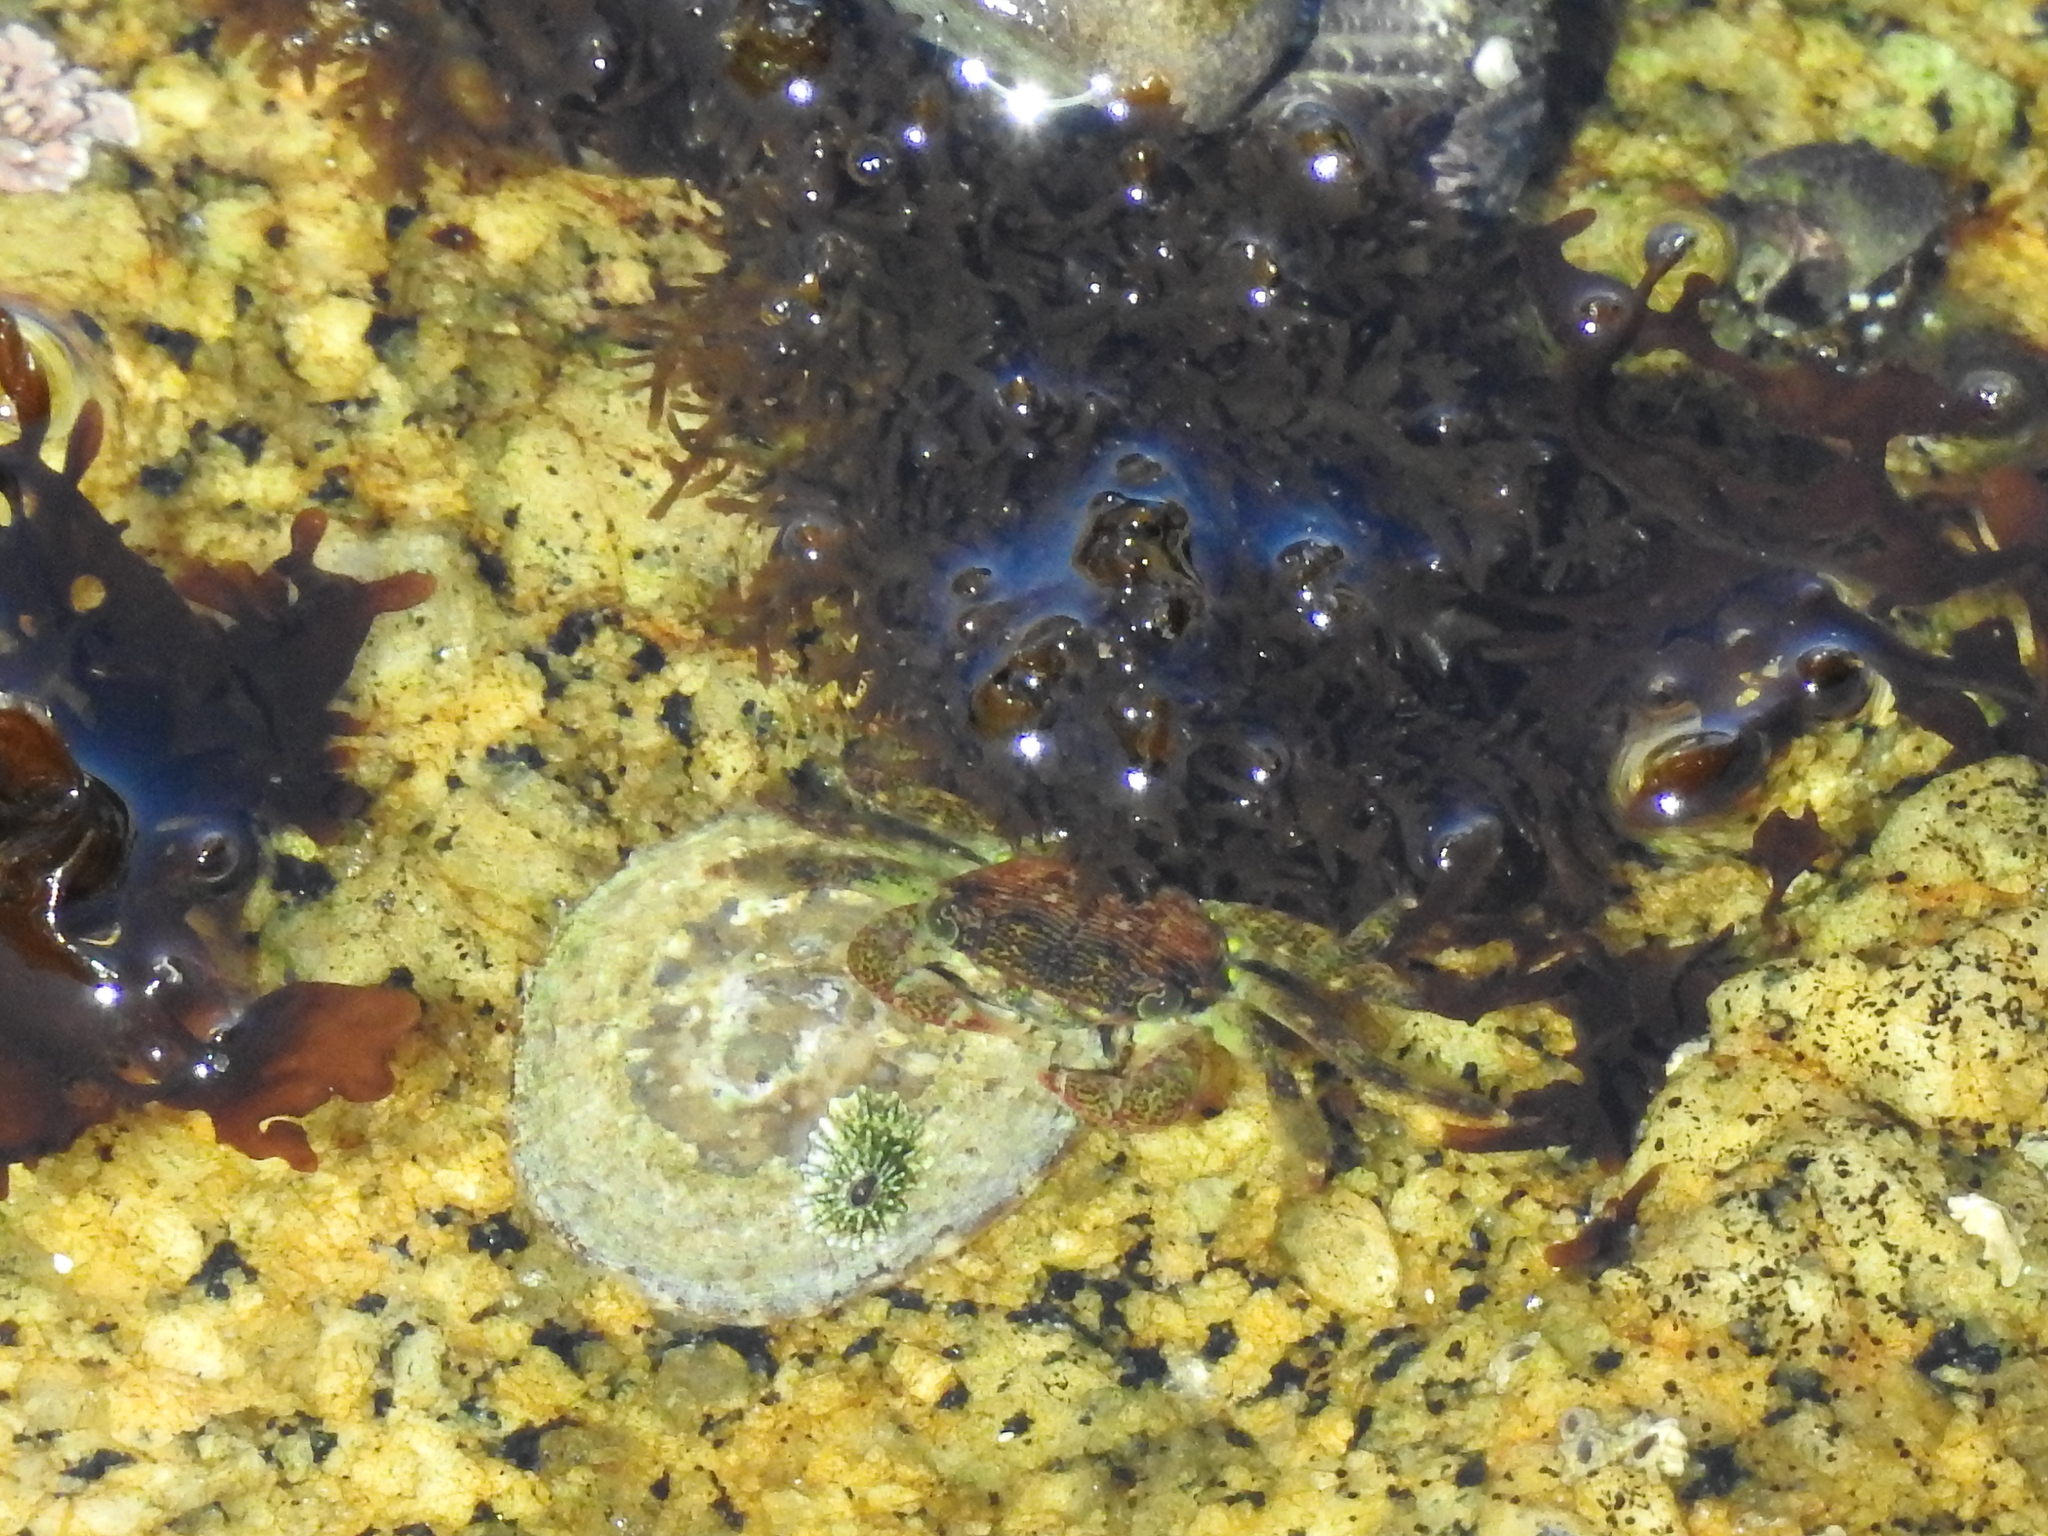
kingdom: Animalia
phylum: Arthropoda
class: Malacostraca
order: Decapoda
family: Grapsidae
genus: Pachygrapsus
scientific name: Pachygrapsus crassipes
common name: Striped shore crab
